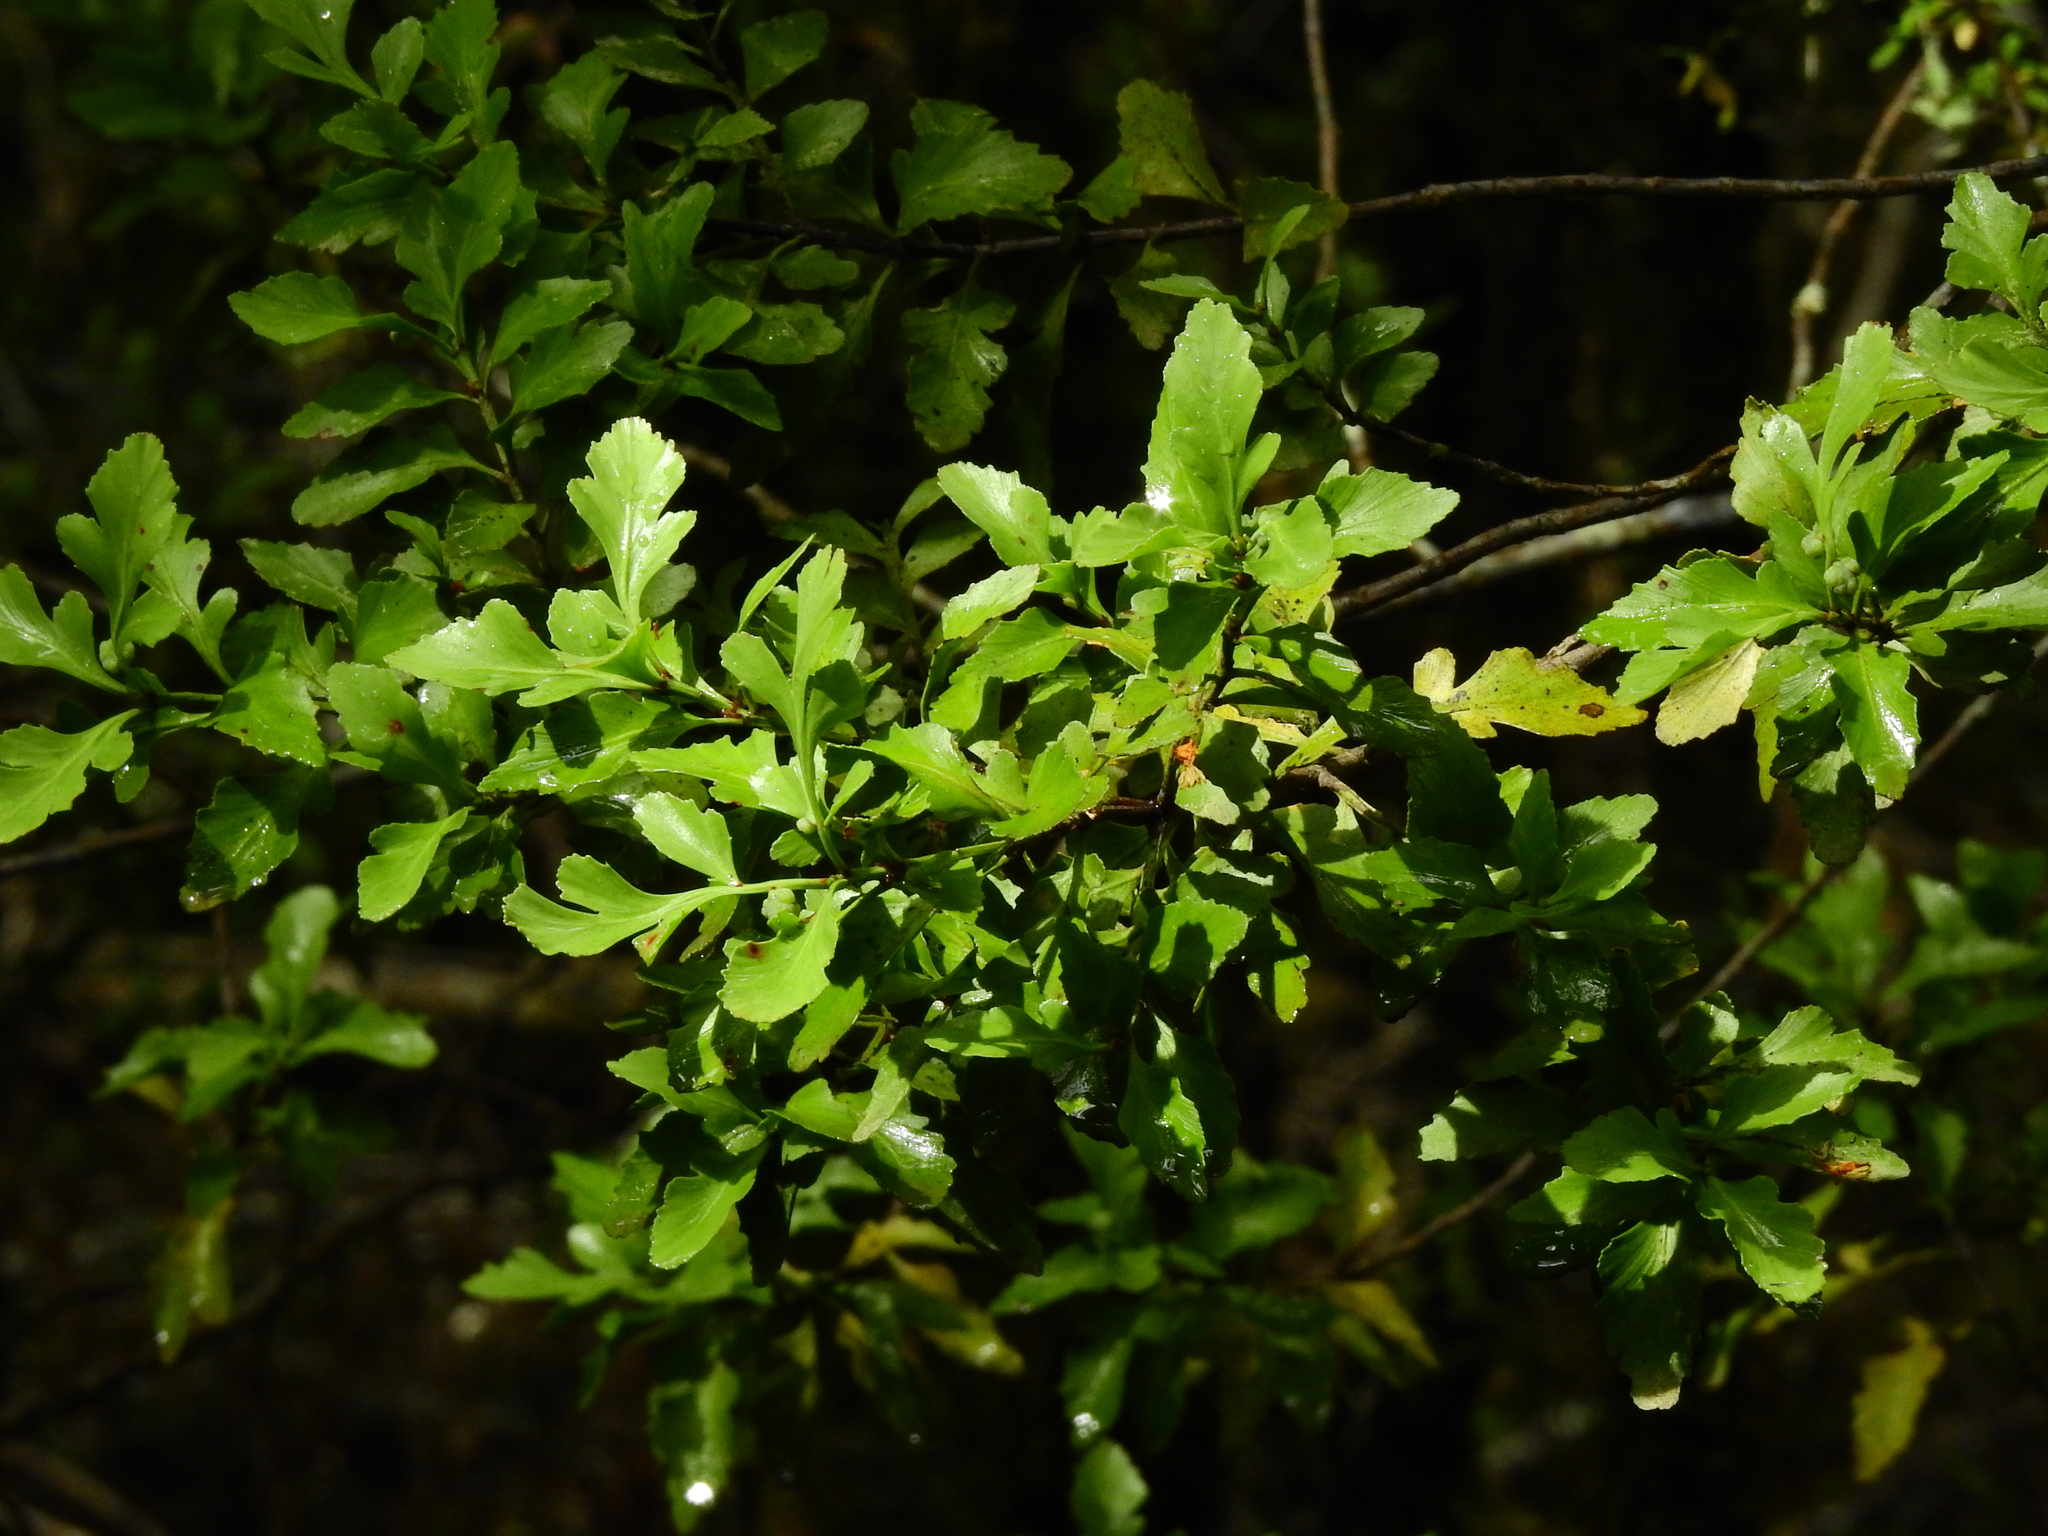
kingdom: Plantae
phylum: Tracheophyta
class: Pinopsida
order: Pinales
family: Phyllocladaceae
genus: Phyllocladus
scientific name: Phyllocladus trichomanoides
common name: Celery pine
